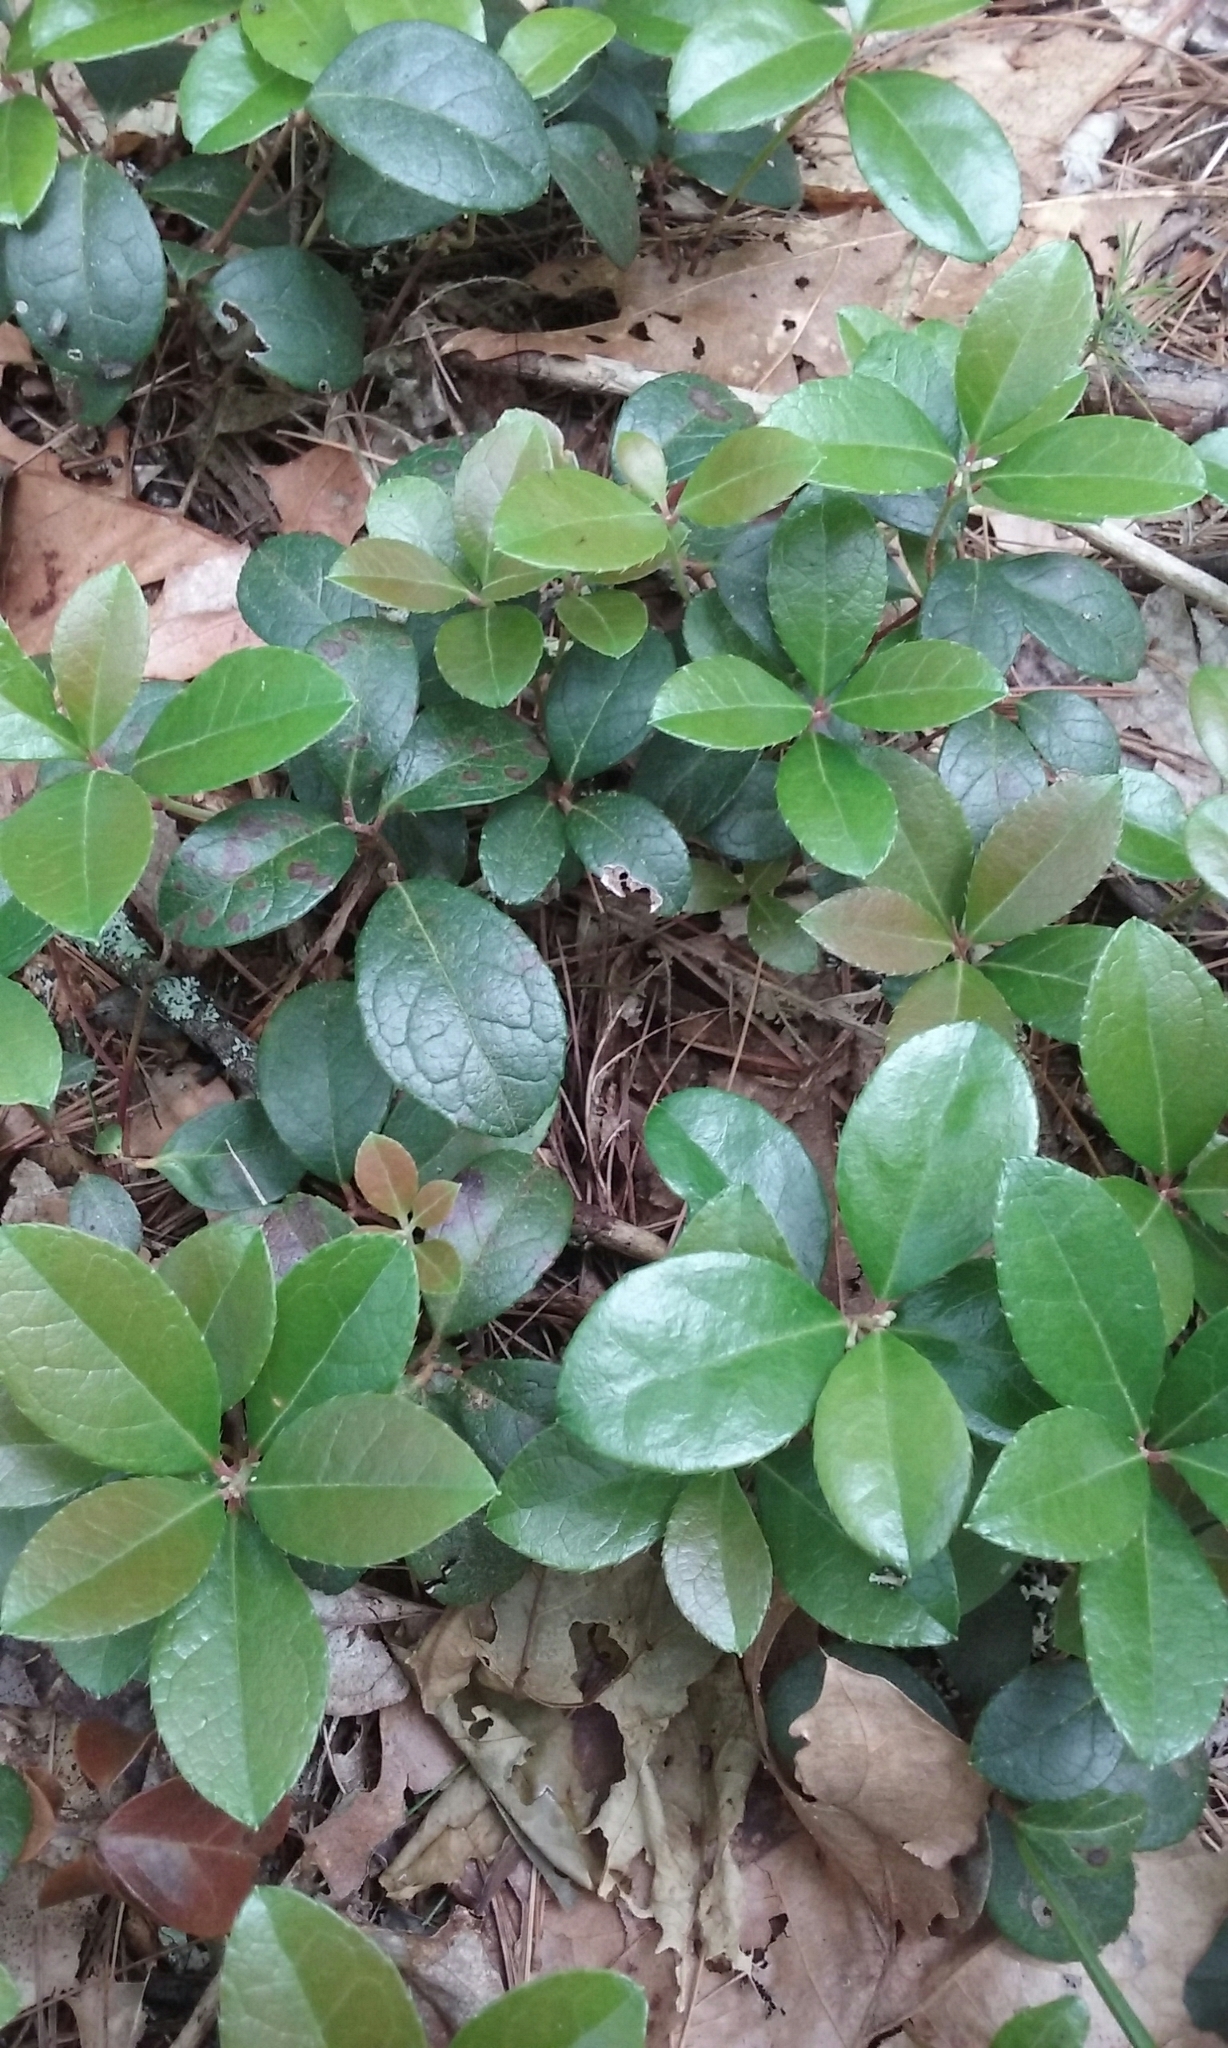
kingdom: Plantae
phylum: Tracheophyta
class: Magnoliopsida
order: Ericales
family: Ericaceae
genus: Gaultheria
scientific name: Gaultheria procumbens
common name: Checkerberry
